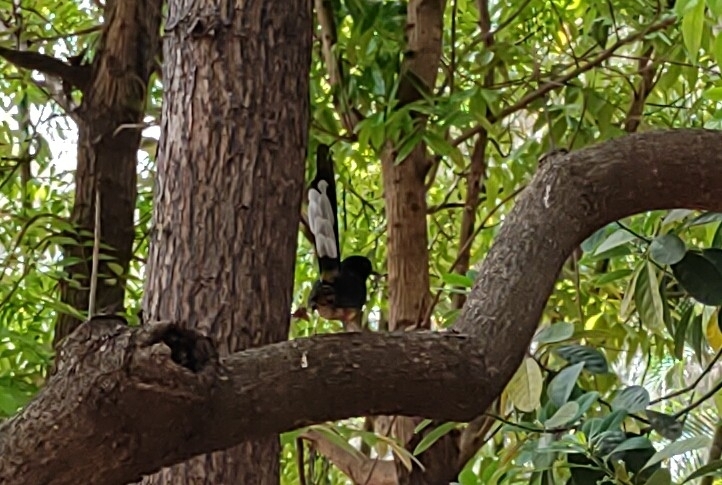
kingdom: Animalia
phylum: Chordata
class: Aves
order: Passeriformes
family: Muscicapidae
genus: Copsychus
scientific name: Copsychus malabaricus
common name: White-rumped shama
